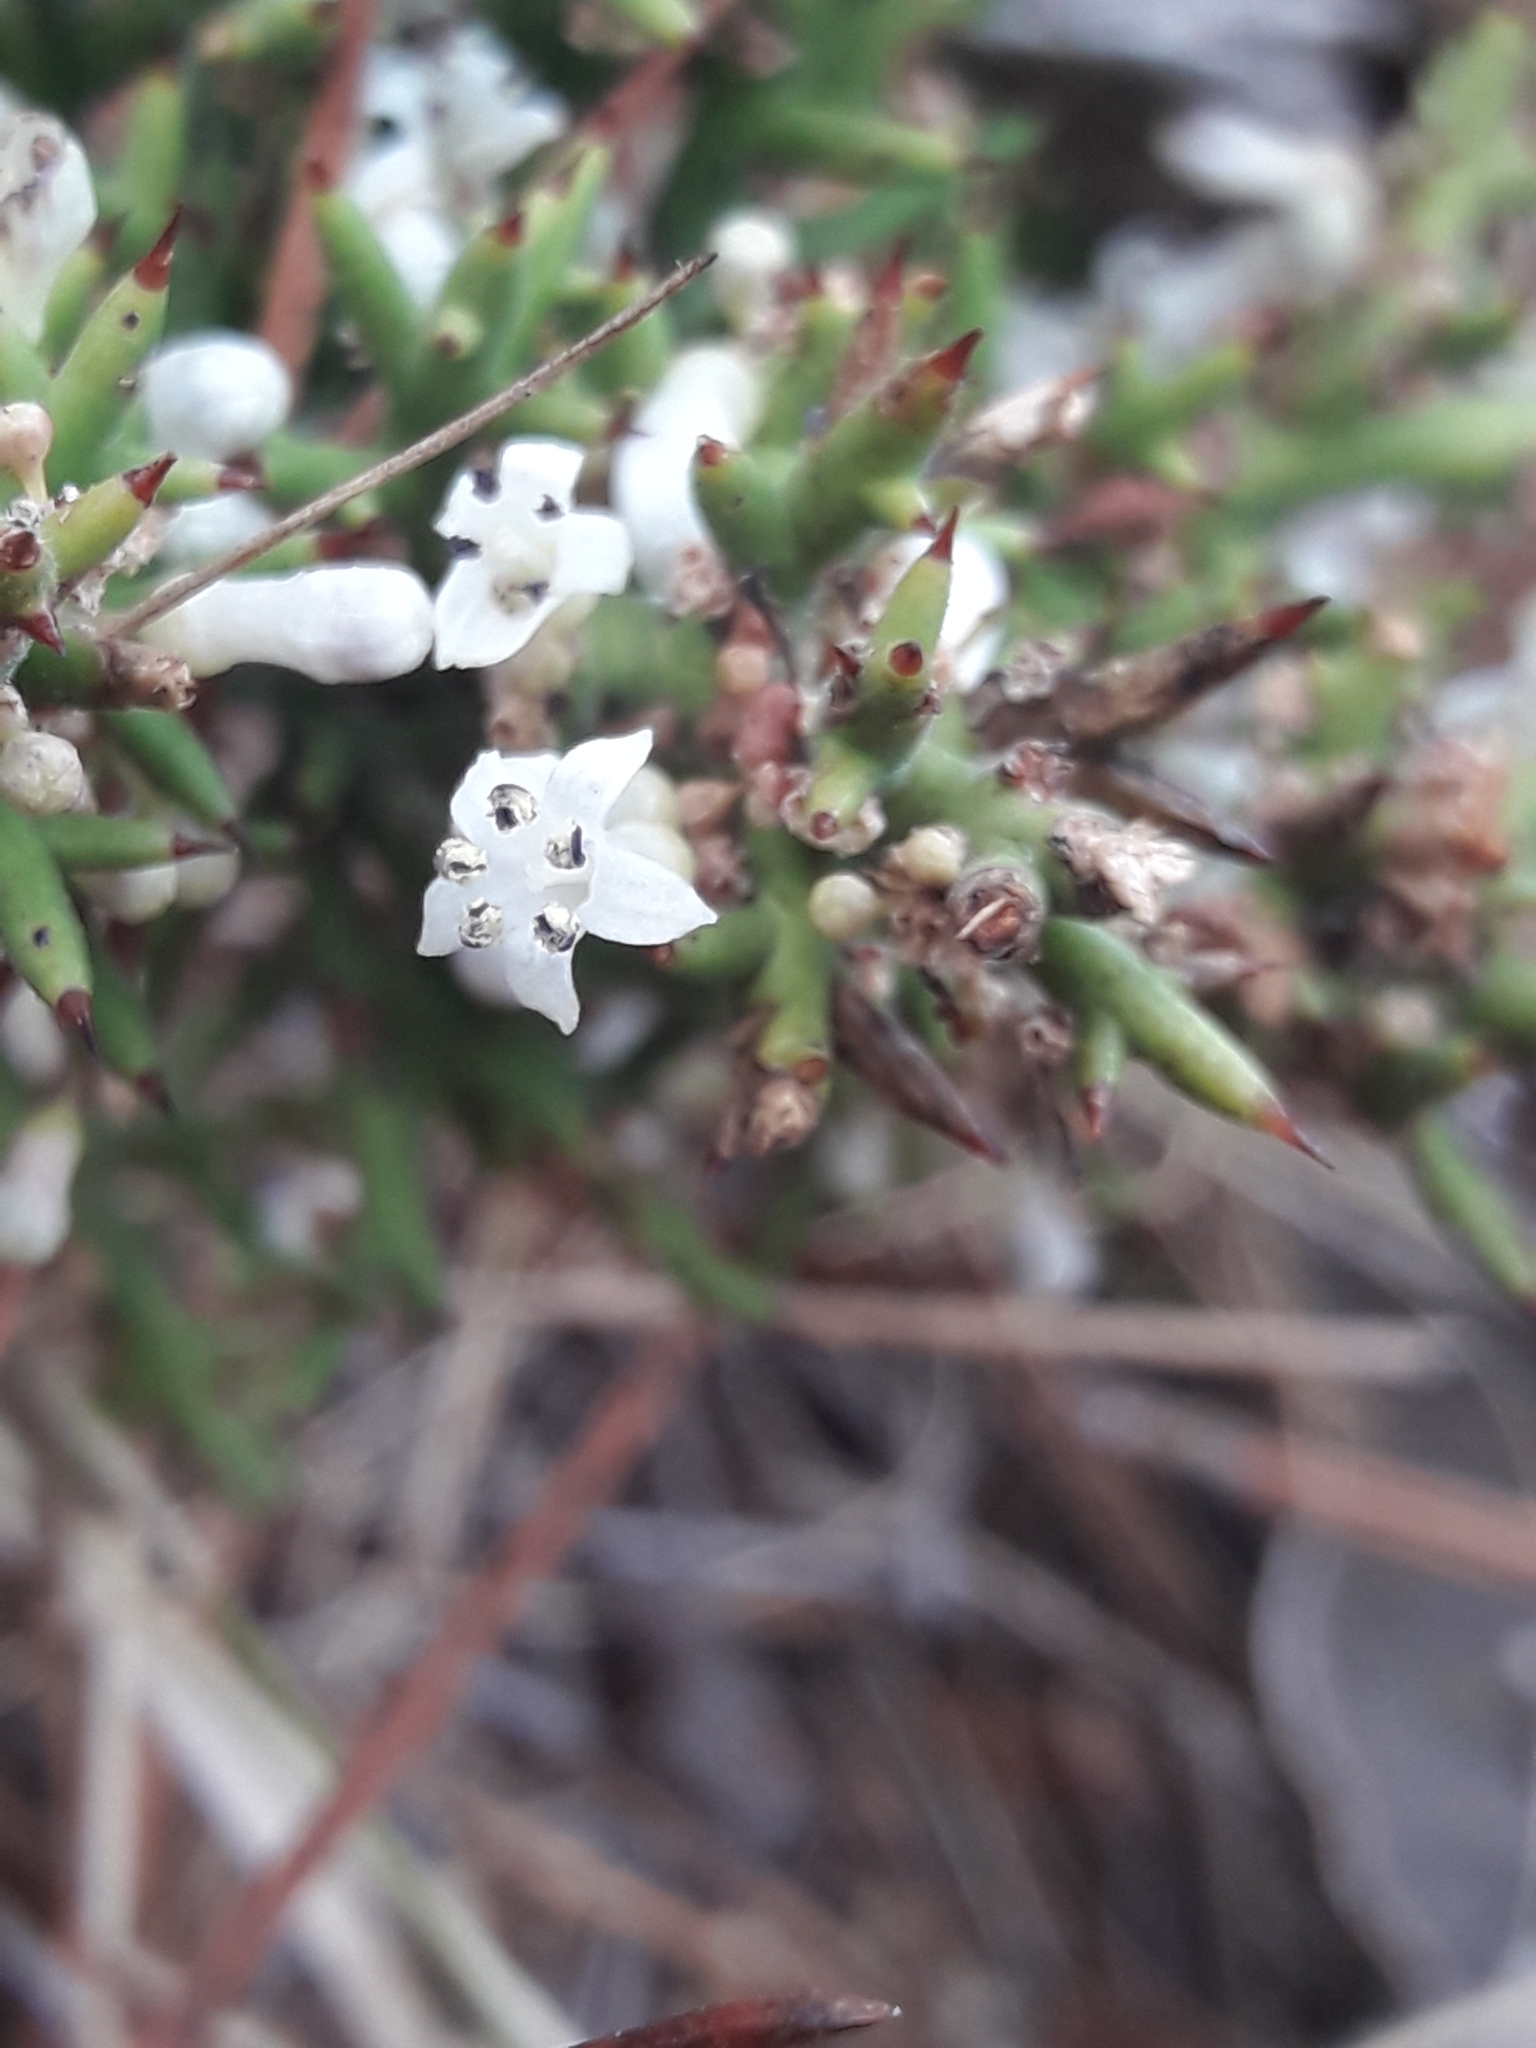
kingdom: Plantae
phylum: Tracheophyta
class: Magnoliopsida
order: Rosales
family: Rhamnaceae
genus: Colletia
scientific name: Colletia hystrix
